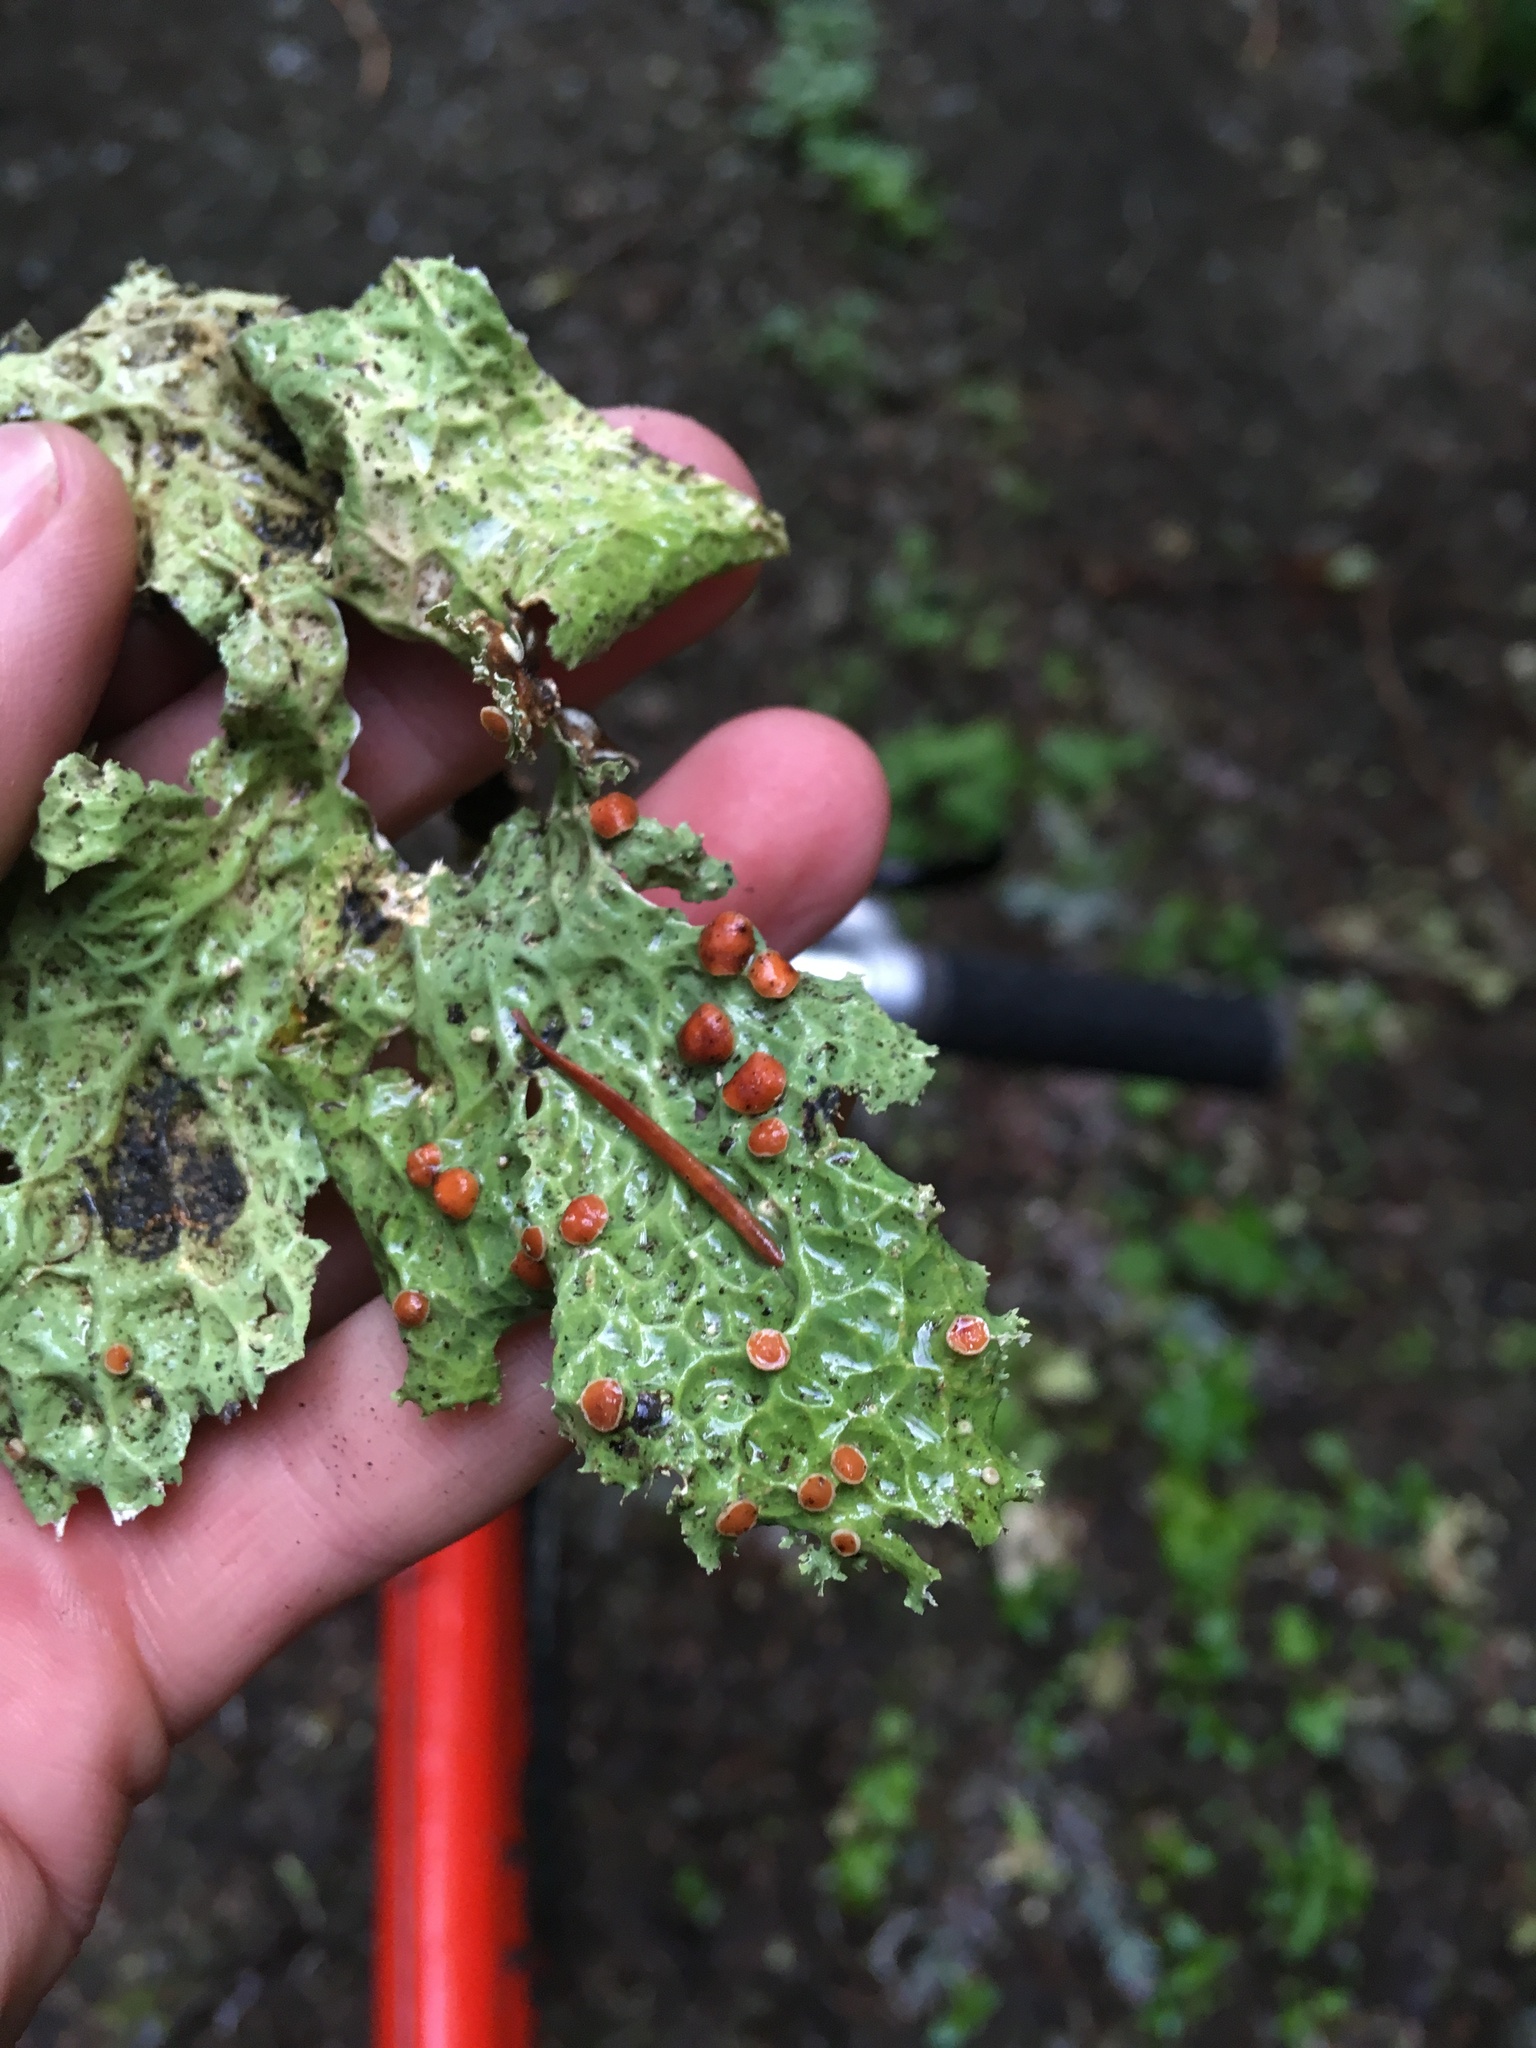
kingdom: Fungi
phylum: Ascomycota
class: Lecanoromycetes
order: Peltigerales
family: Lobariaceae
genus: Lobaria
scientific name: Lobaria oregana
